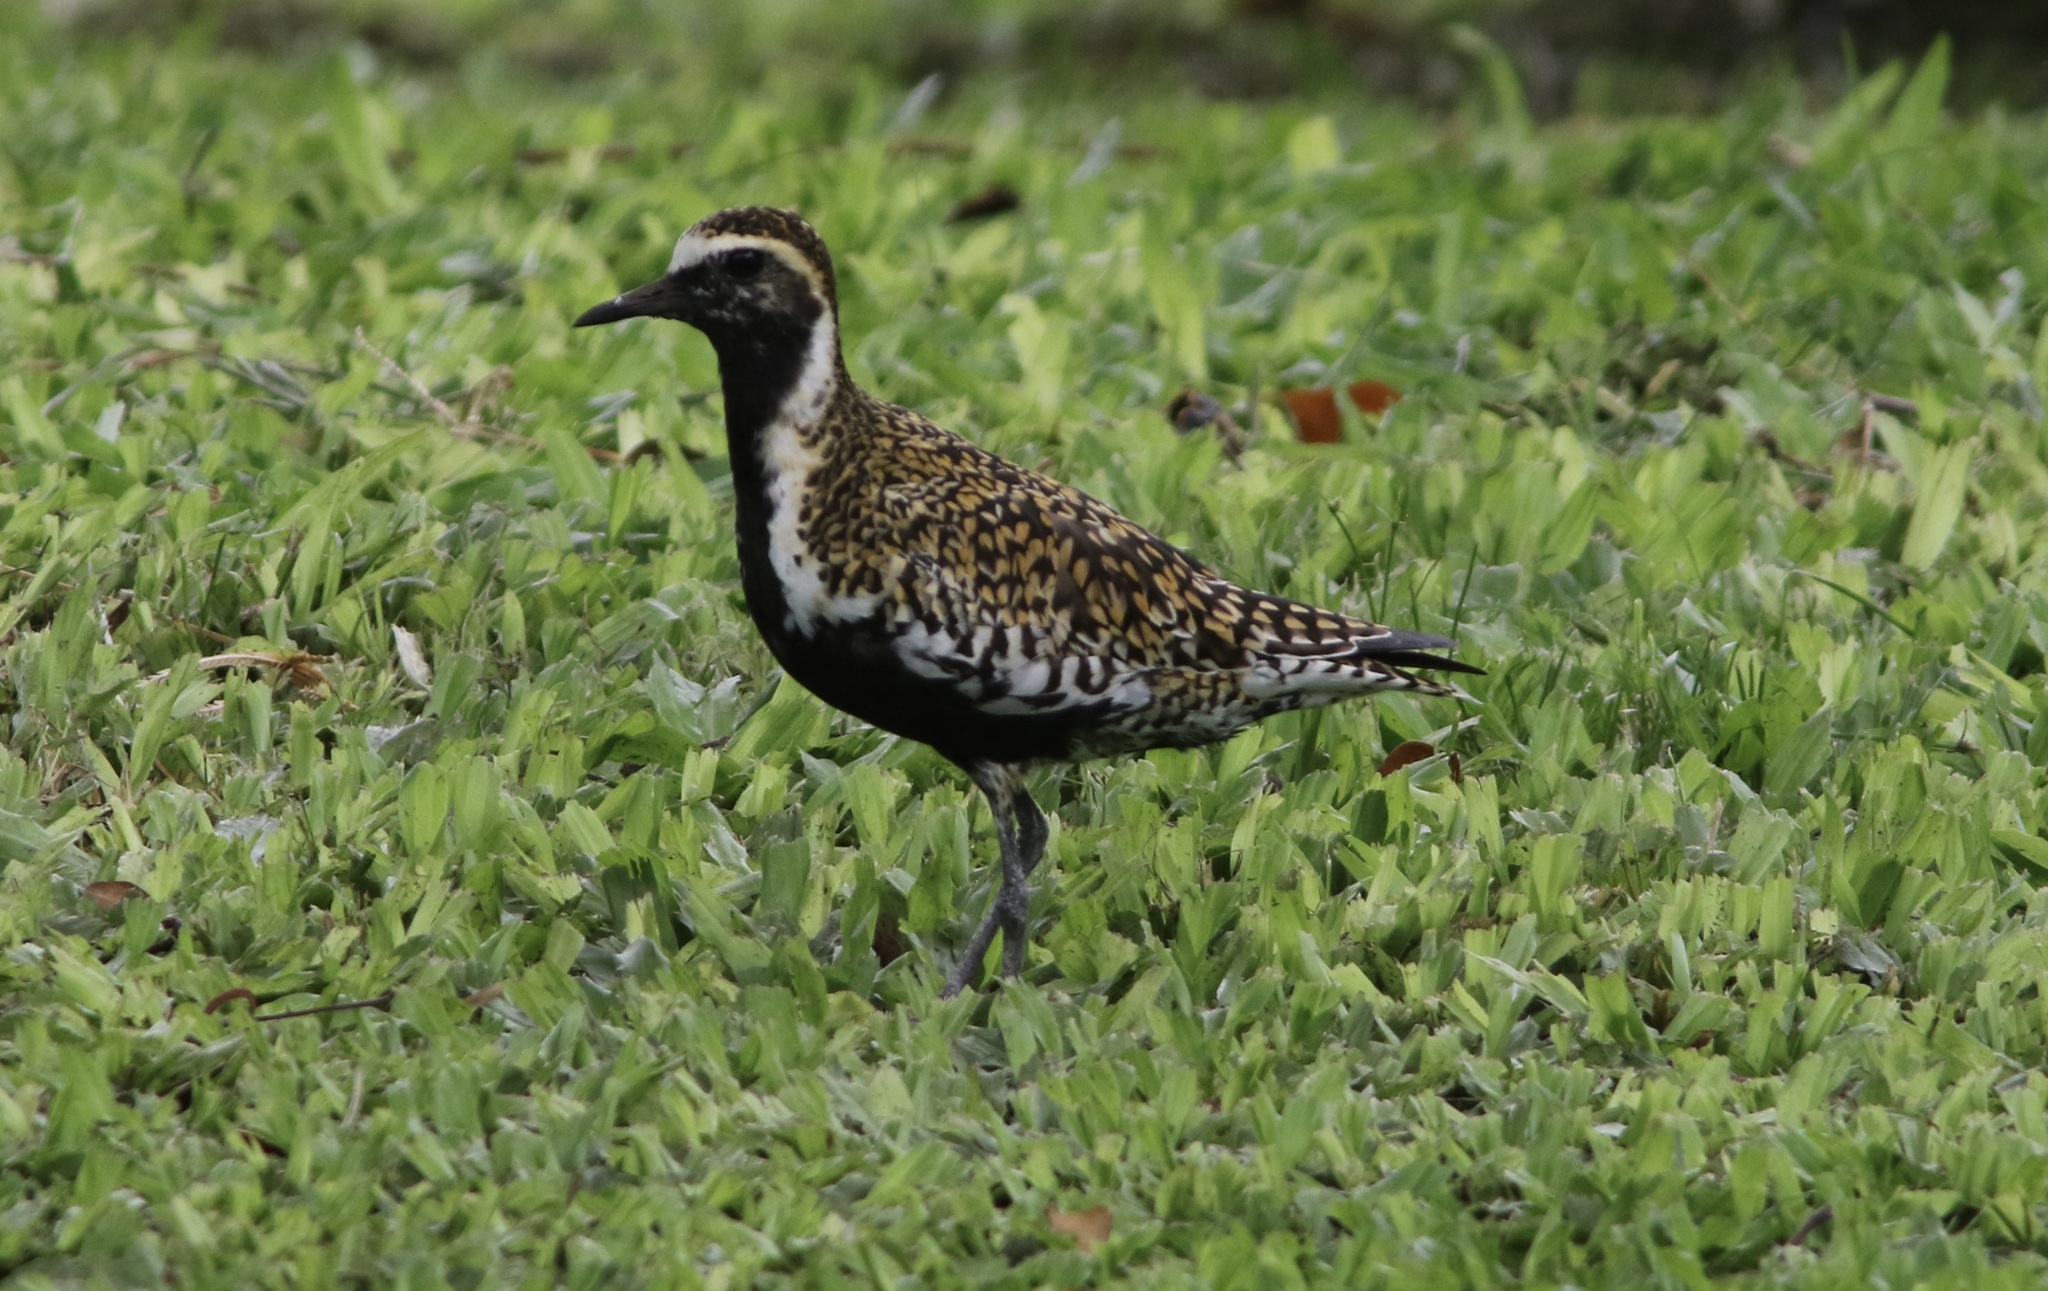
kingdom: Animalia
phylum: Chordata
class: Aves
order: Charadriiformes
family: Charadriidae
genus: Pluvialis
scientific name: Pluvialis fulva
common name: Pacific golden plover
